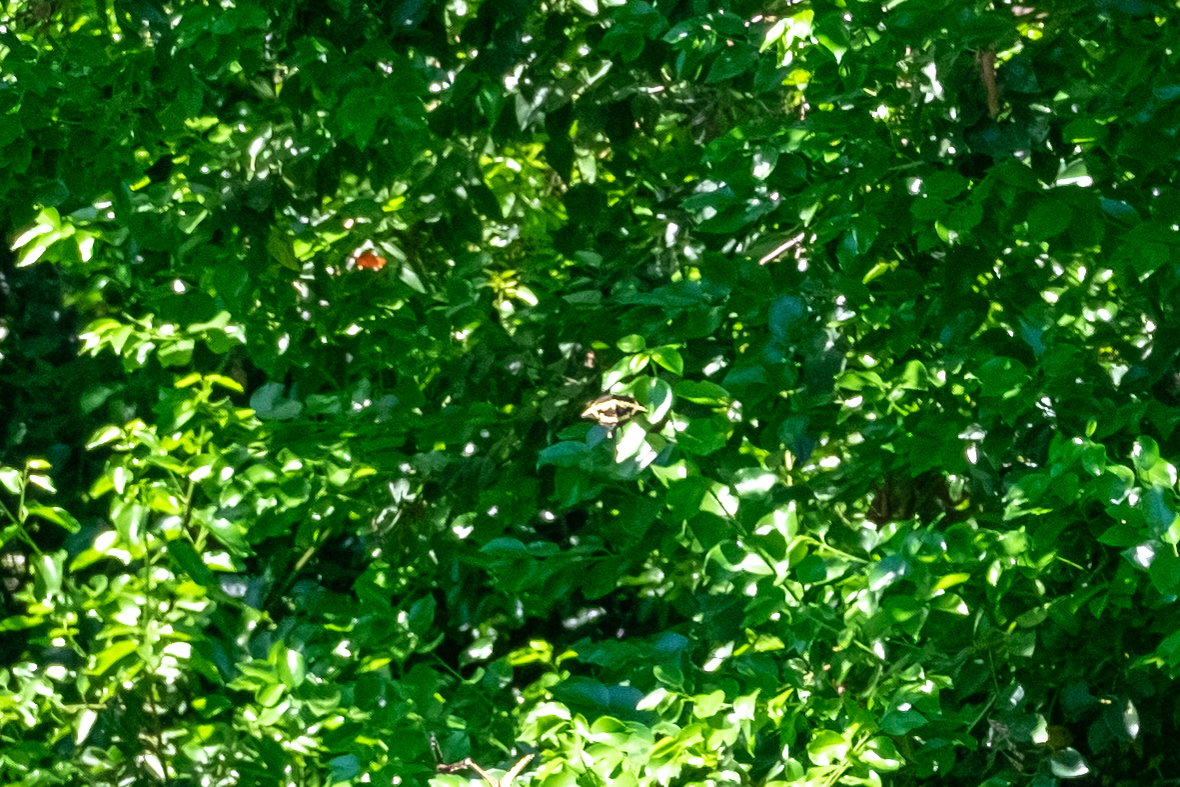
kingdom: Animalia
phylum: Arthropoda
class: Insecta
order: Lepidoptera
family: Papilionidae
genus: Papilio
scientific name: Papilio rumiko
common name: Western giant swallowtail
